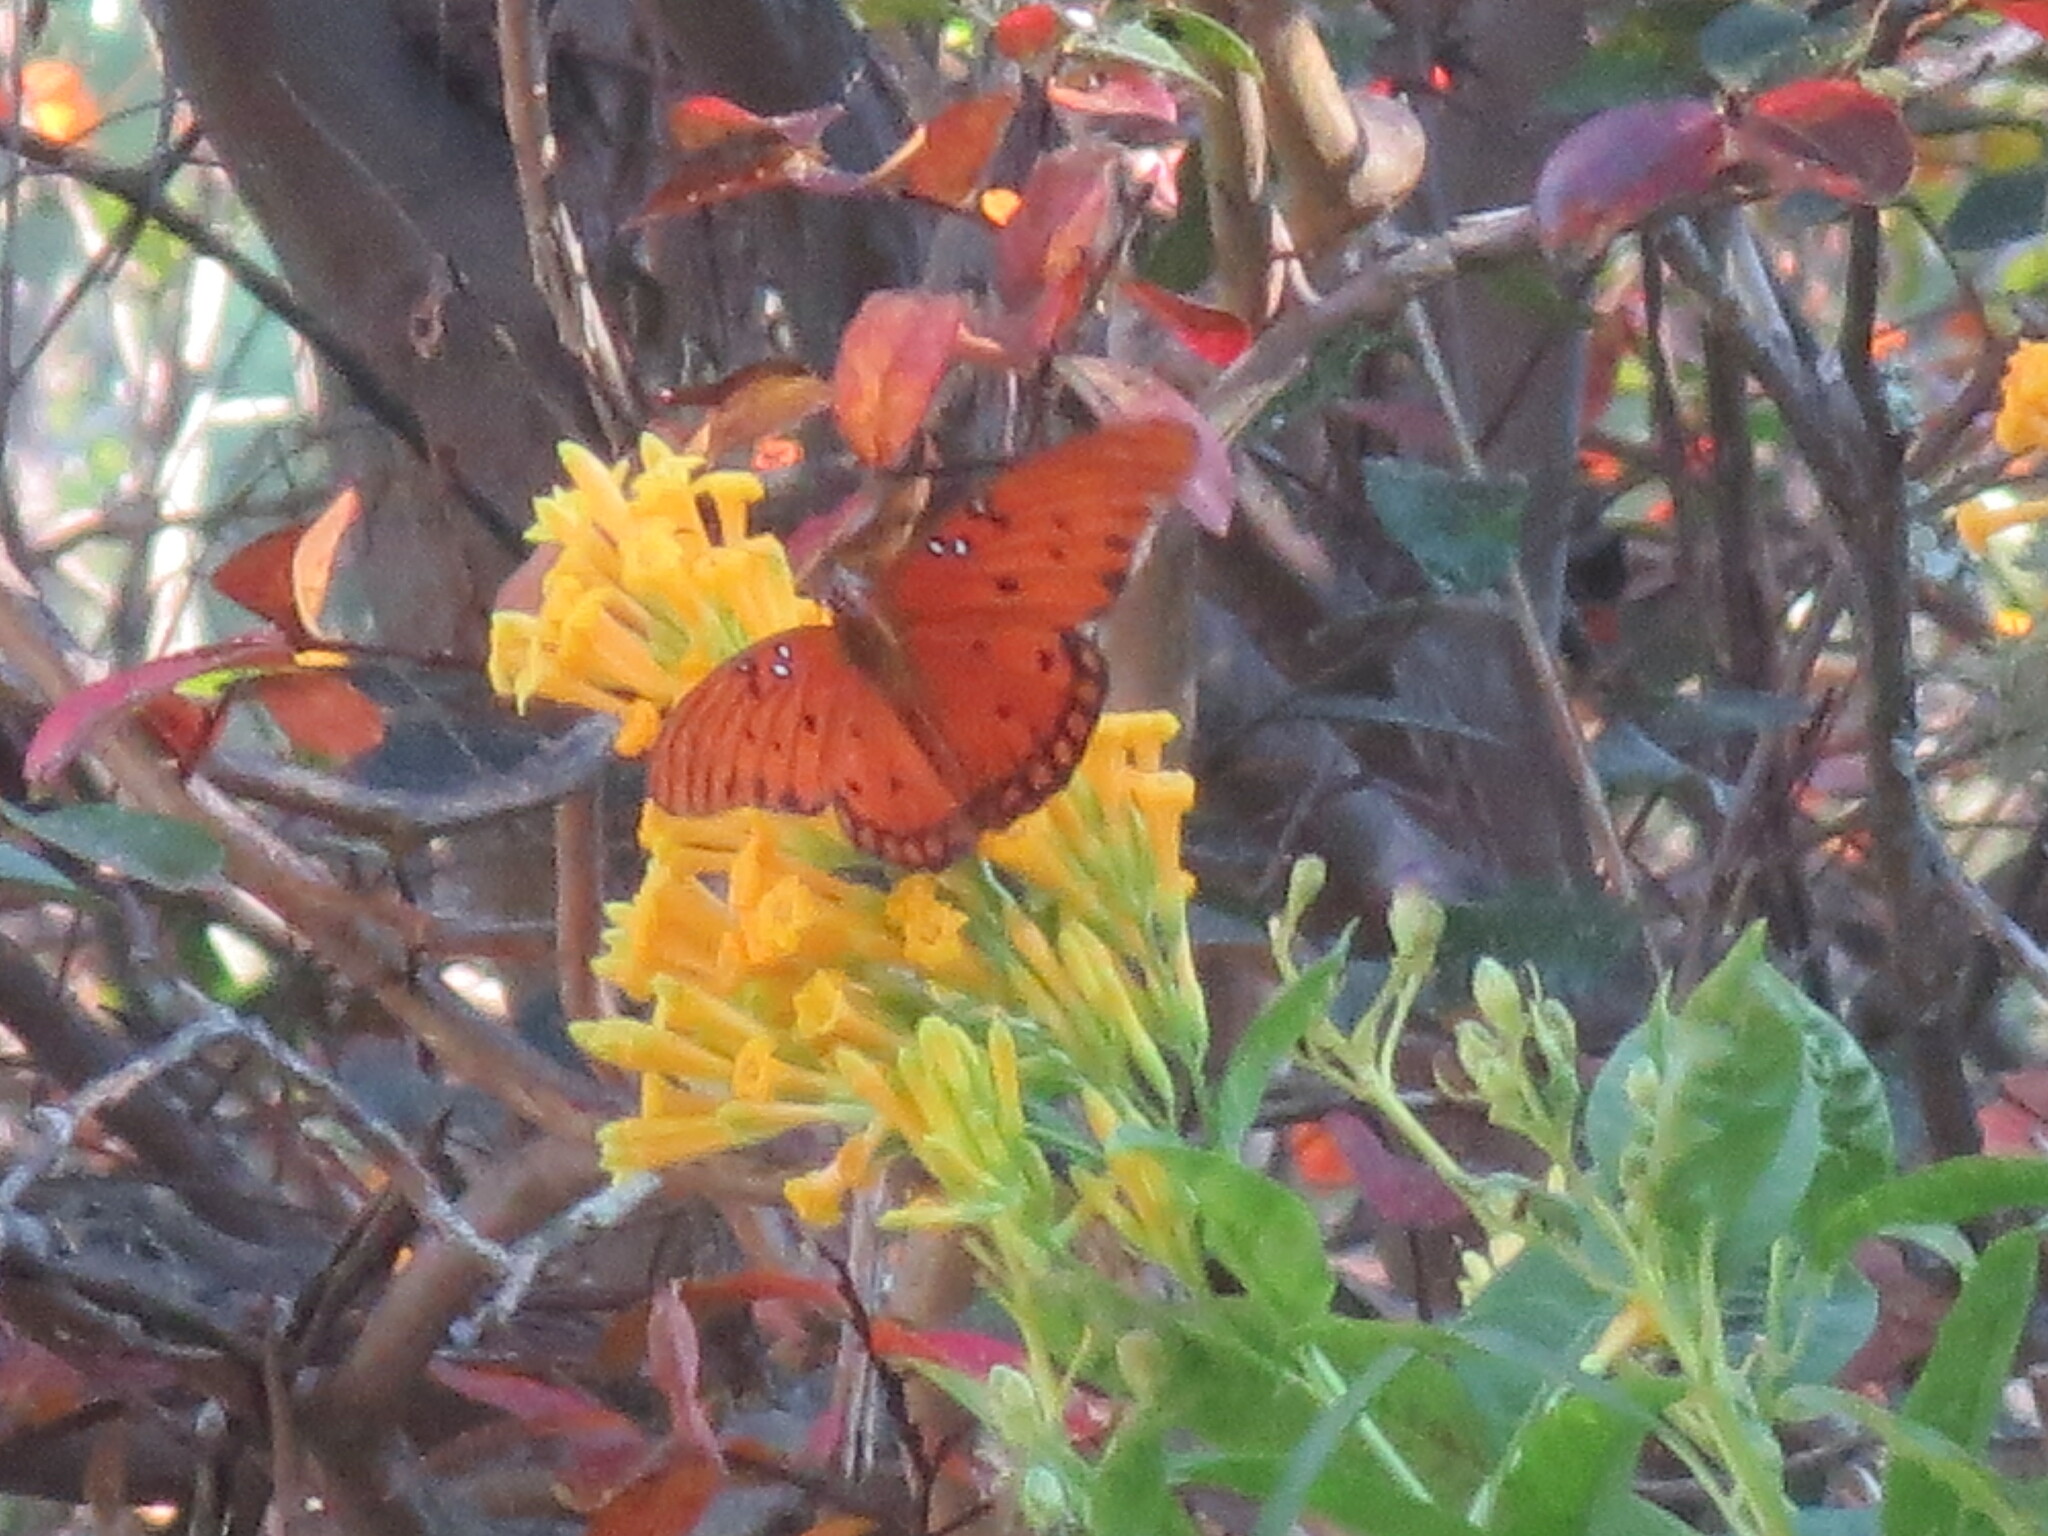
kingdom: Animalia
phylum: Arthropoda
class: Insecta
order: Lepidoptera
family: Nymphalidae
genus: Dione
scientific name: Dione vanillae
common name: Gulf fritillary
